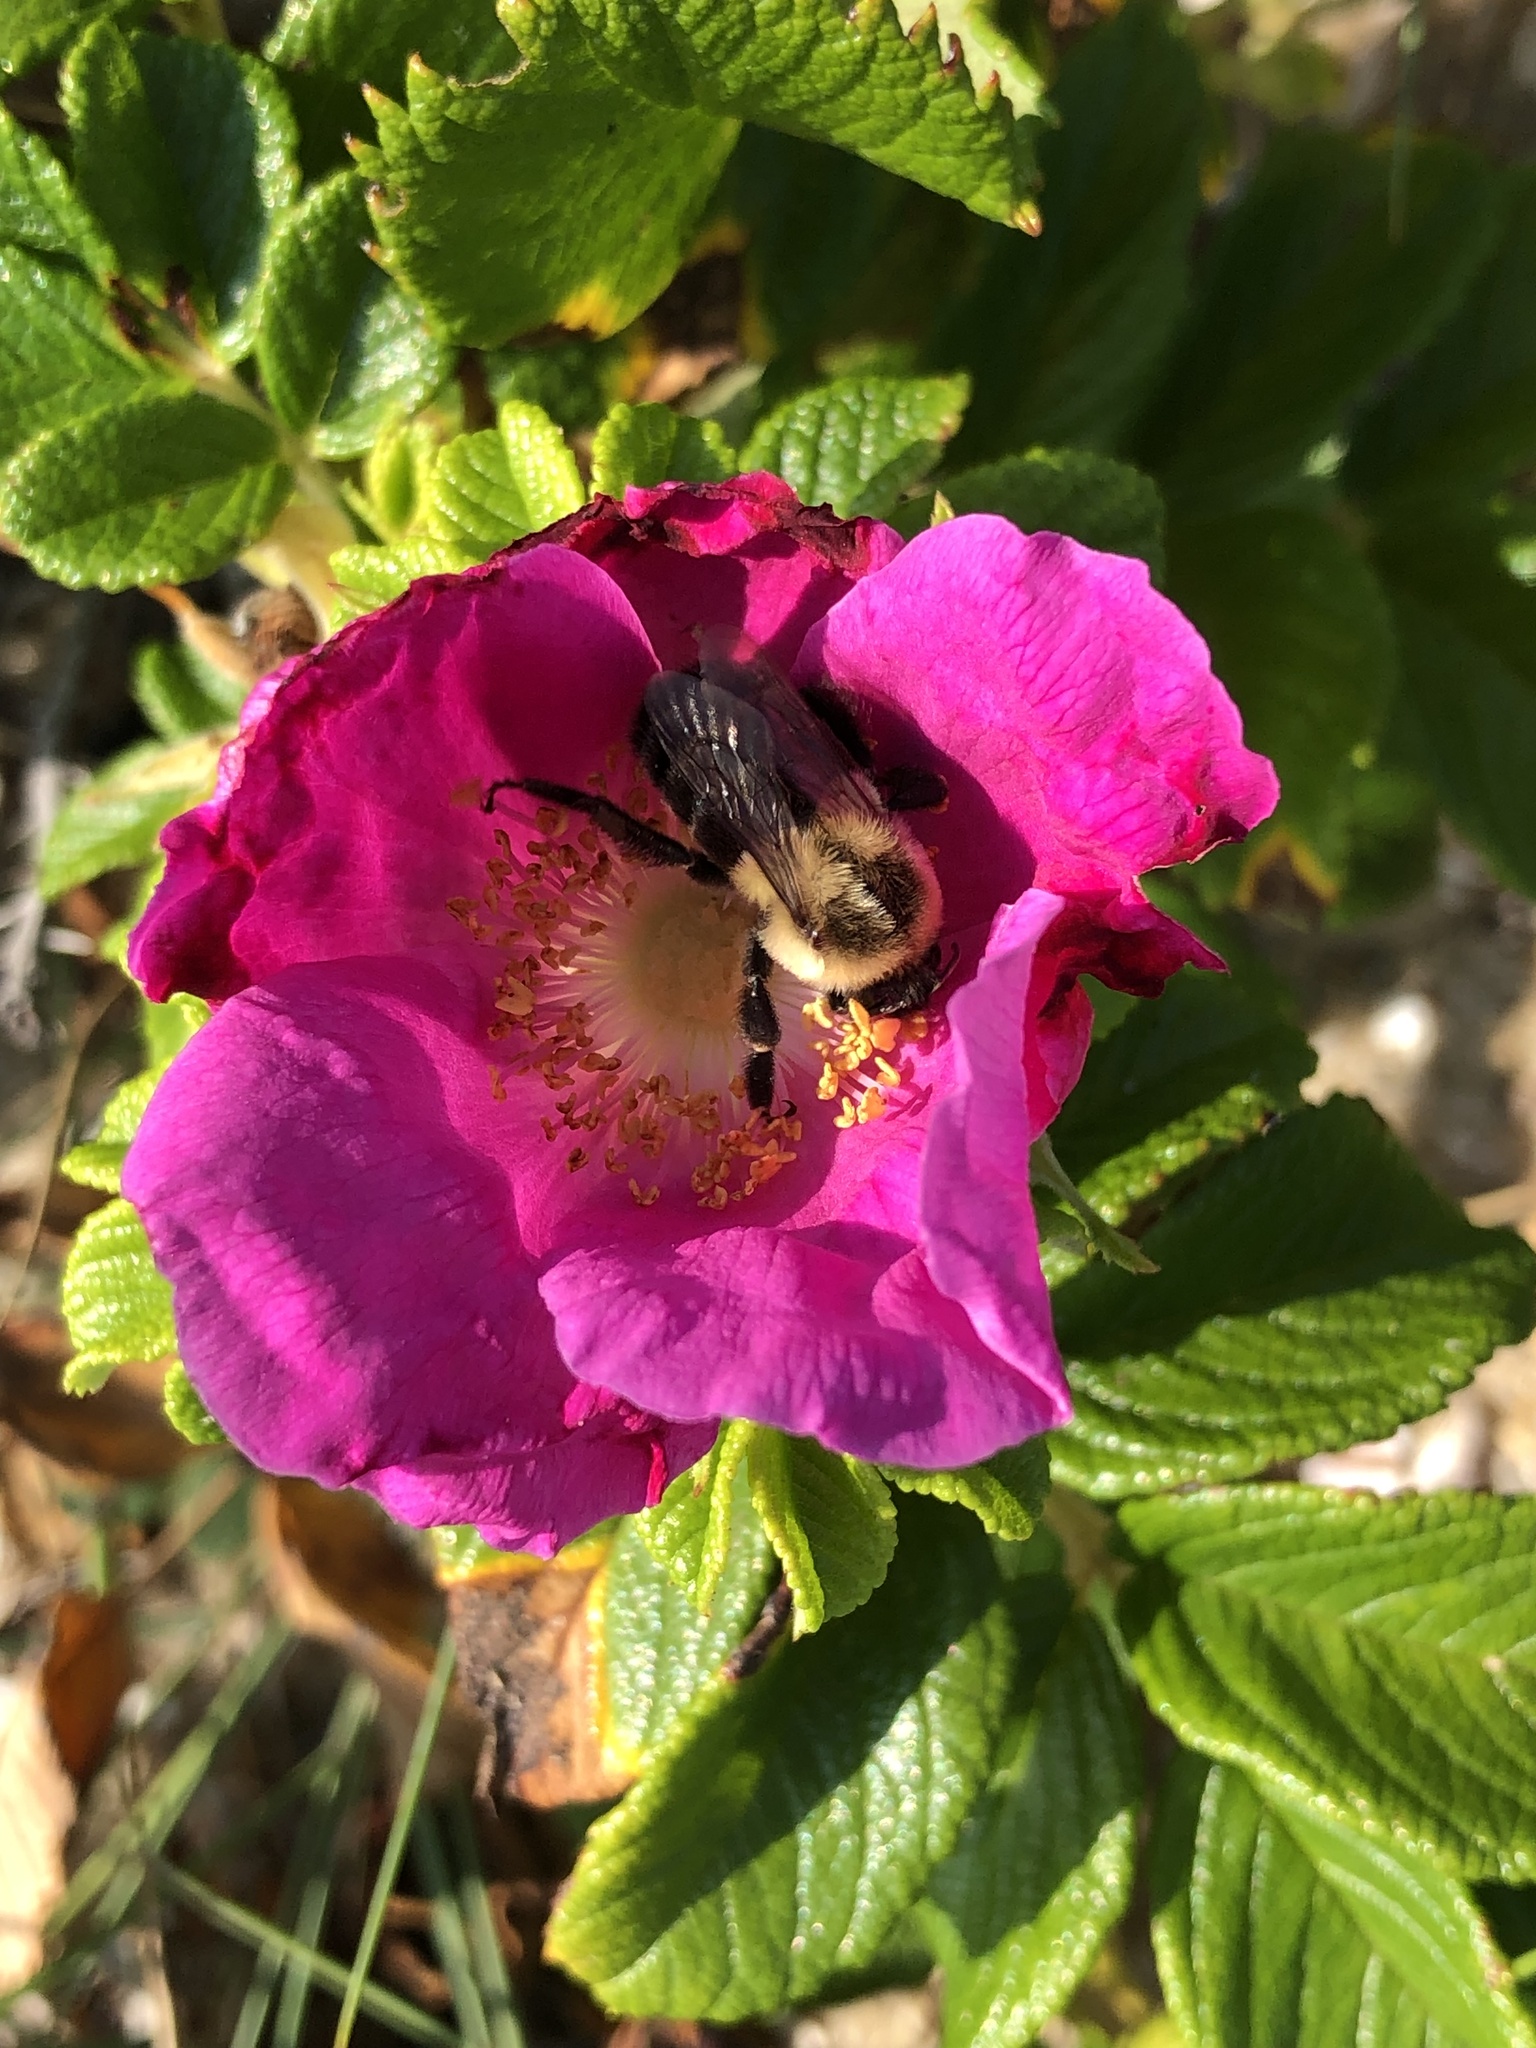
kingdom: Animalia
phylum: Arthropoda
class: Insecta
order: Hymenoptera
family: Apidae
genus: Bombus
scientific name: Bombus impatiens
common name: Common eastern bumble bee
